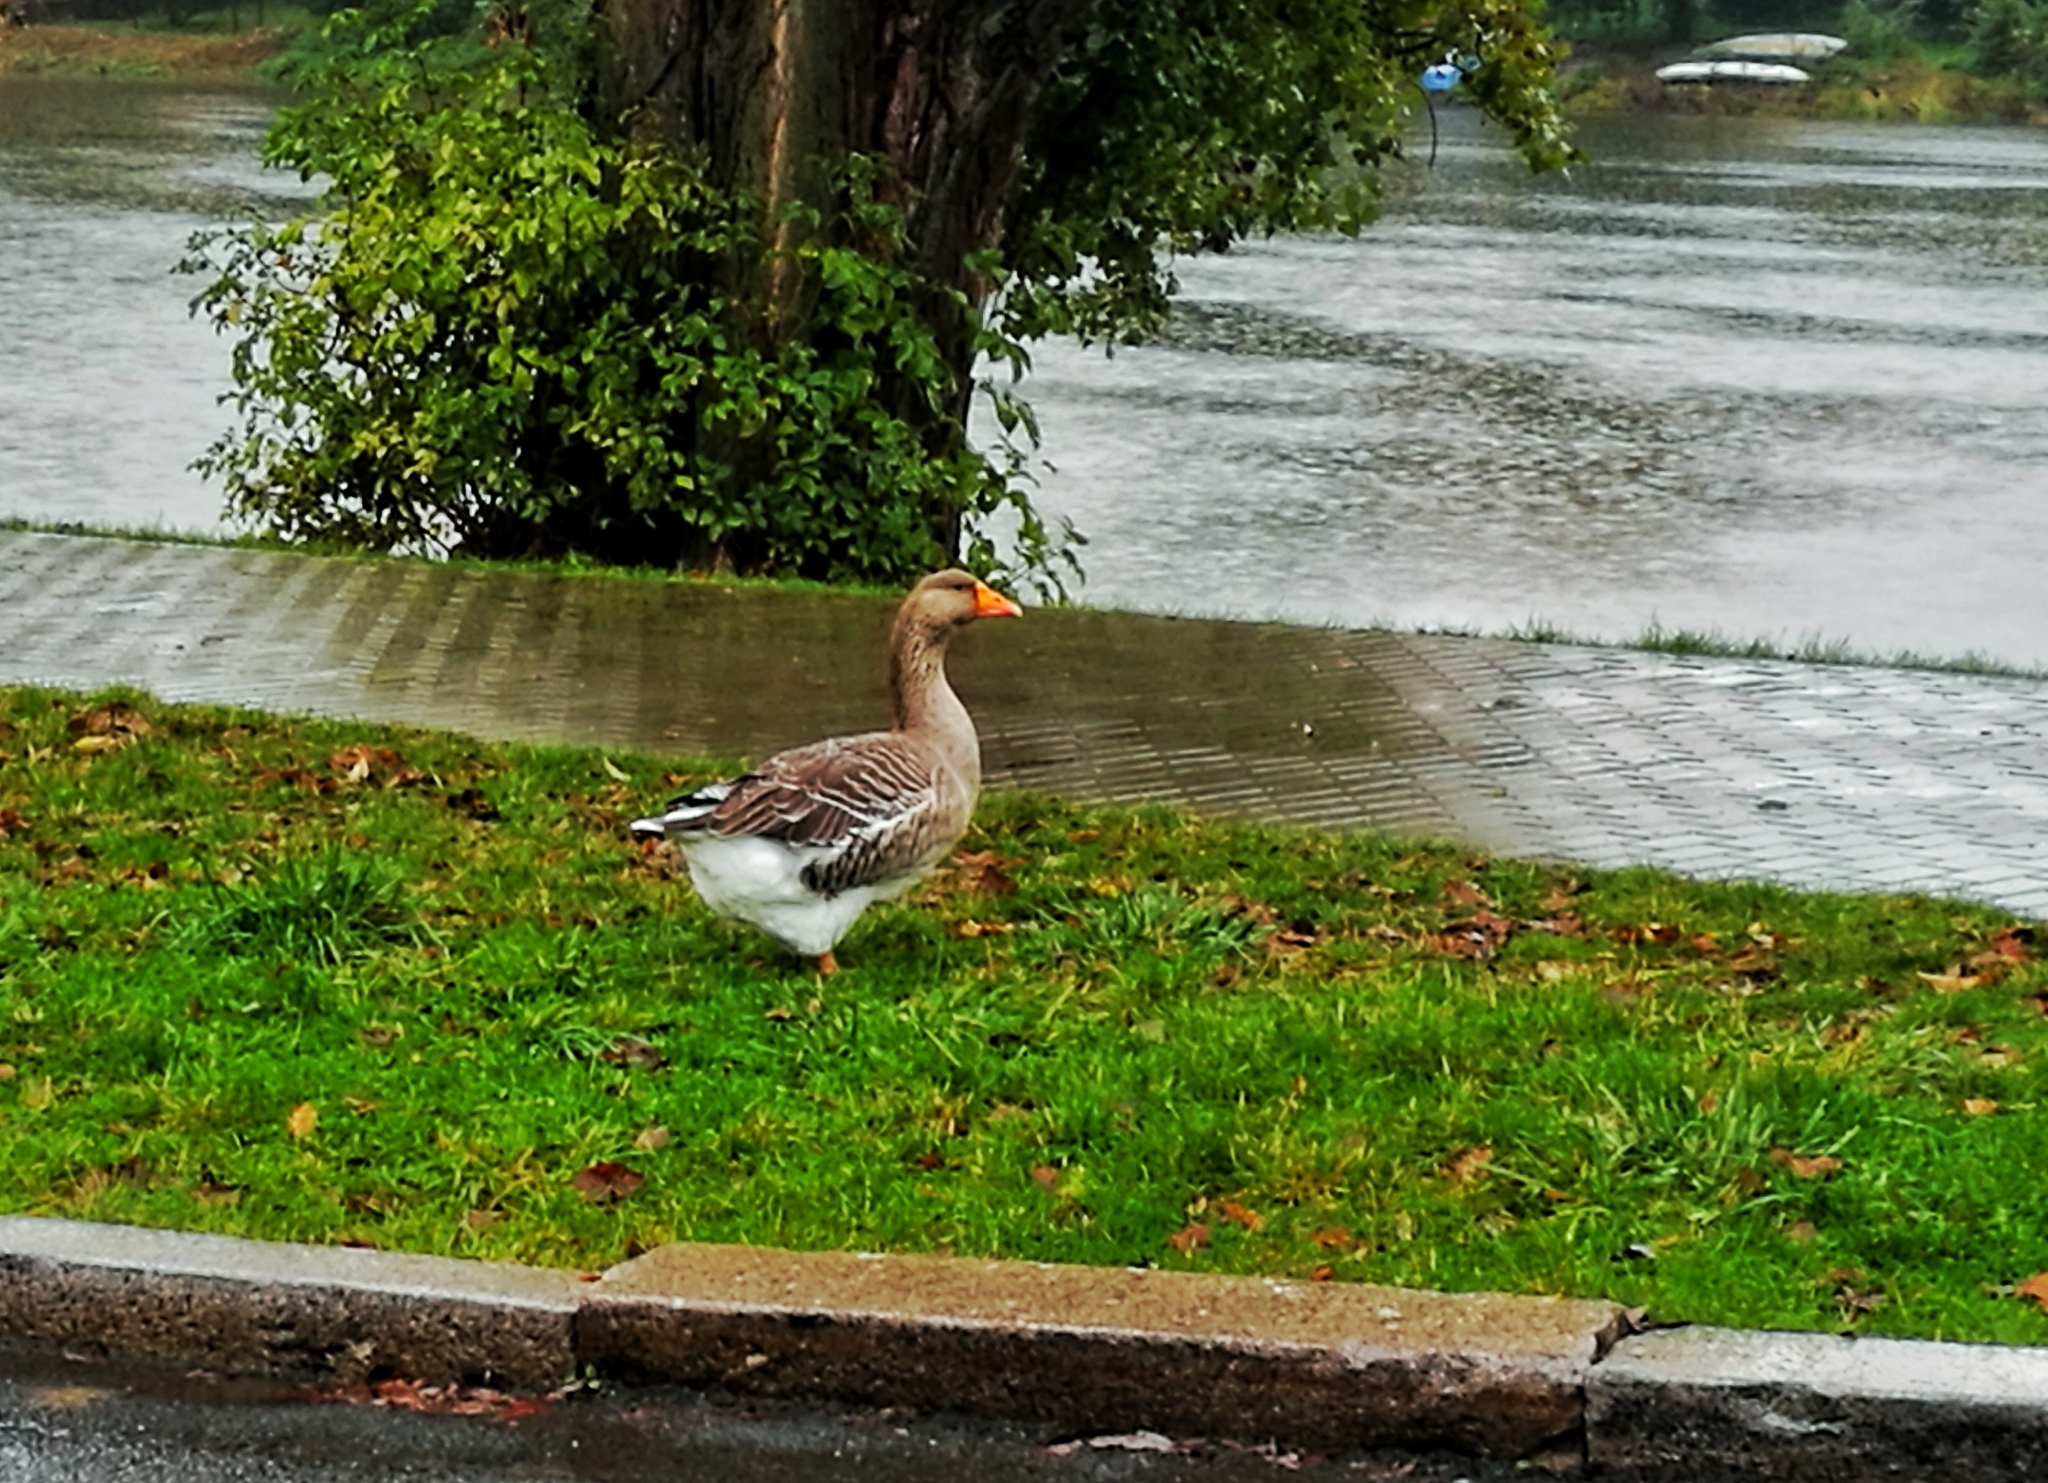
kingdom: Animalia
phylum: Chordata
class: Aves
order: Anseriformes
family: Anatidae
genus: Anser
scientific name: Anser anser
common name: Greylag goose
